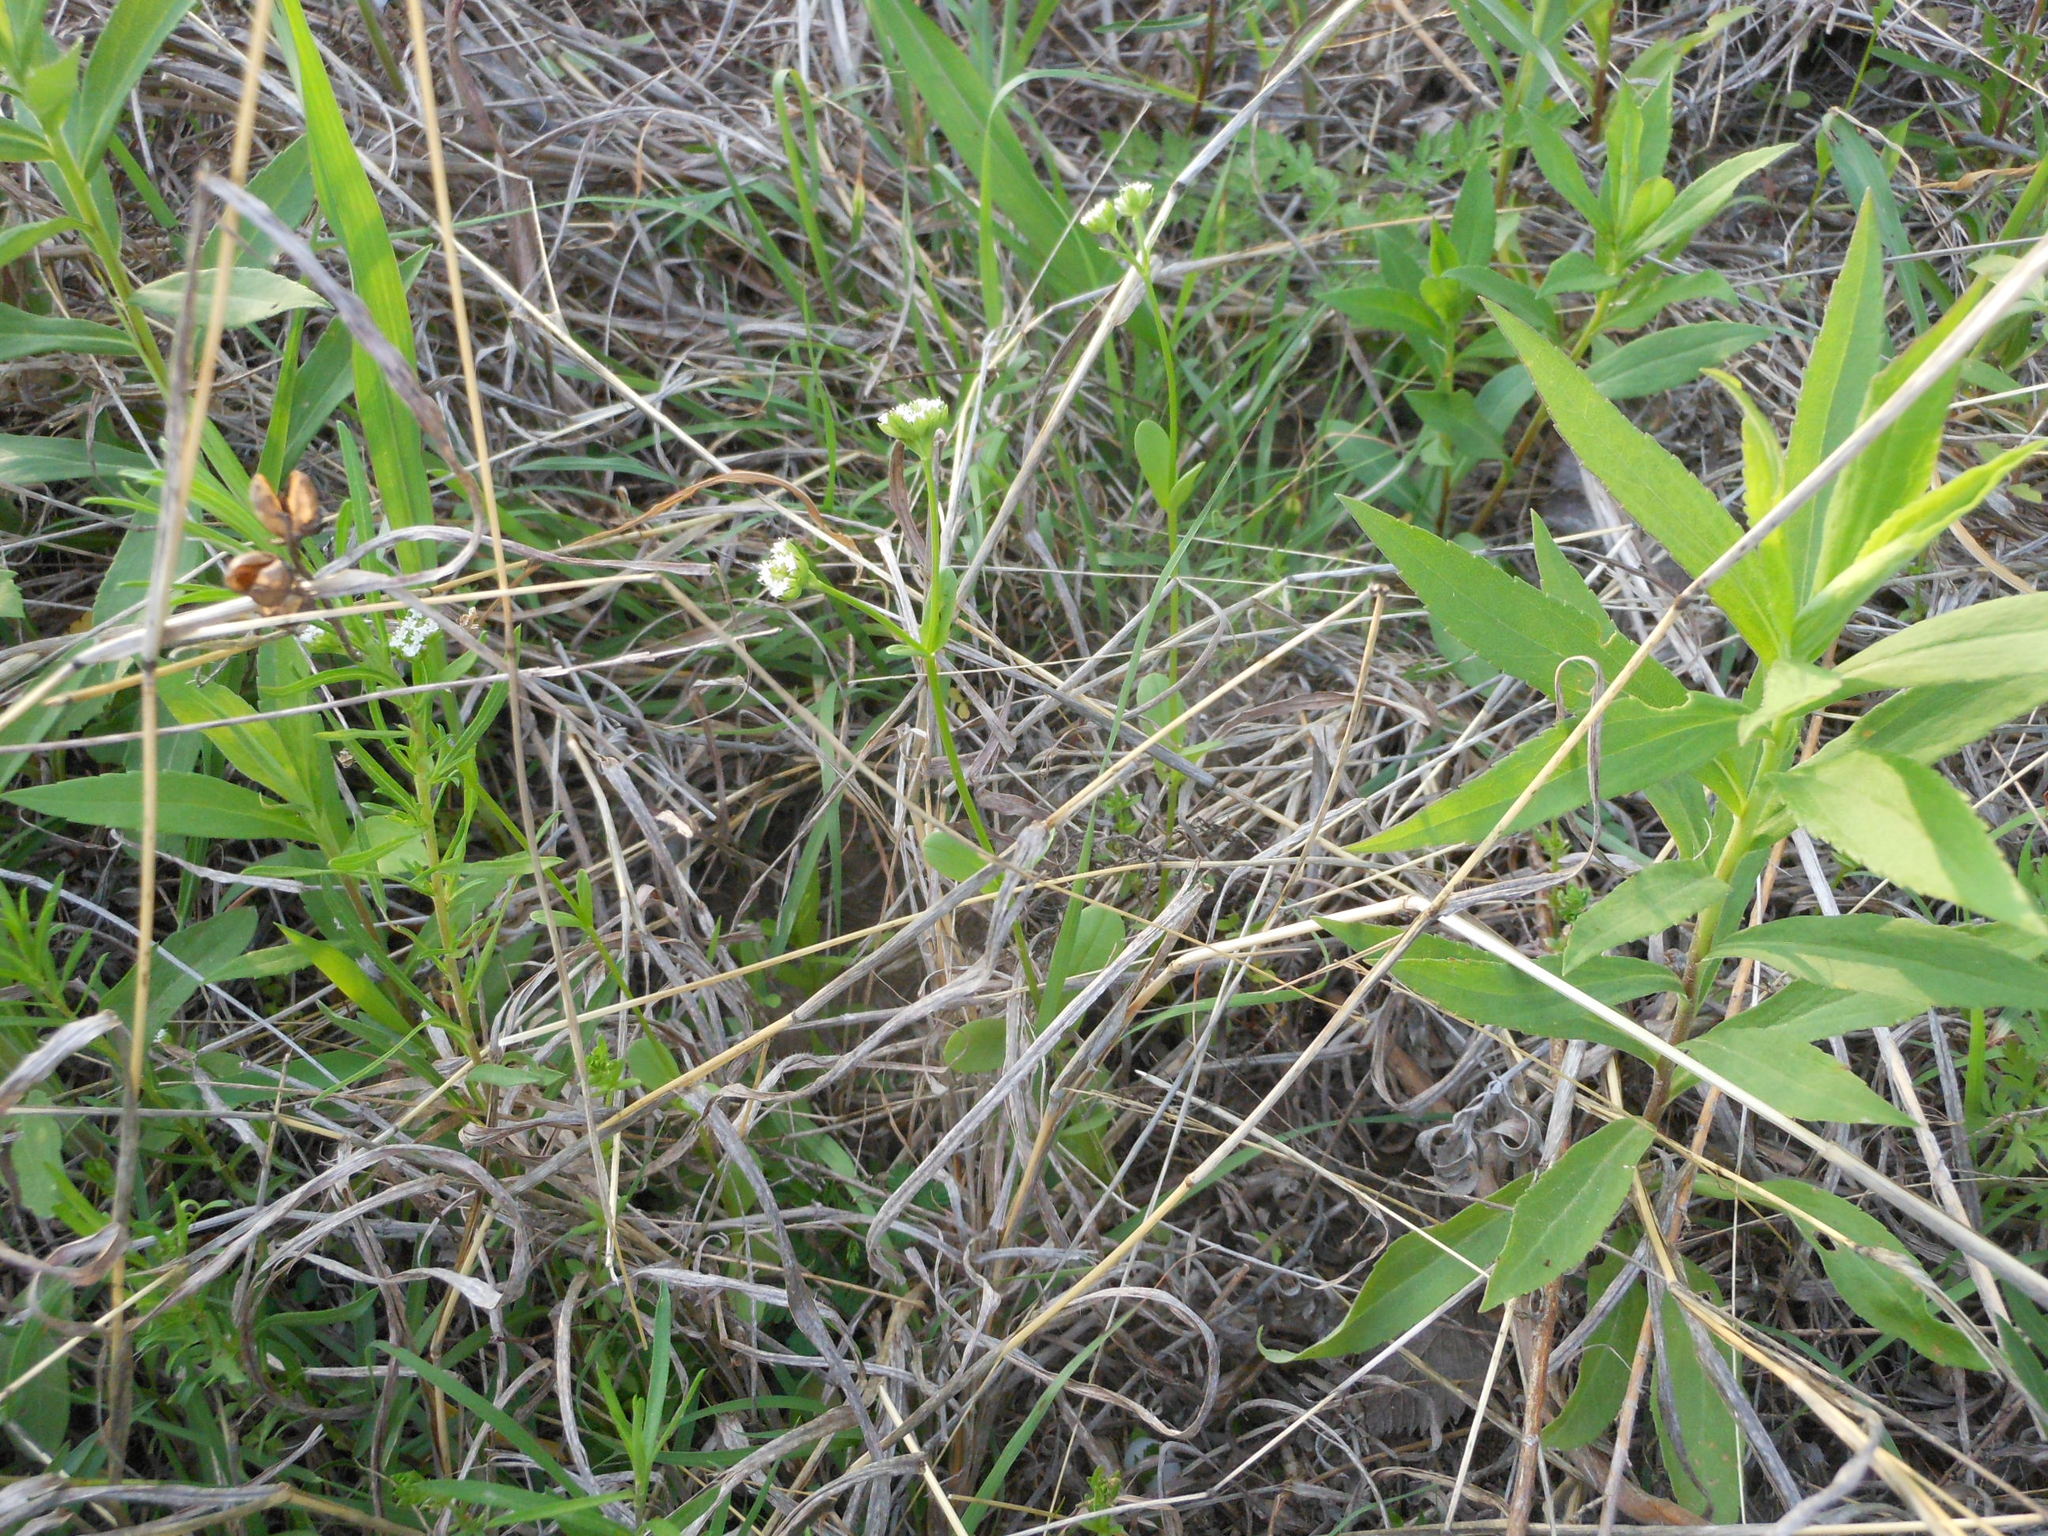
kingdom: Plantae
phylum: Tracheophyta
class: Magnoliopsida
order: Dipsacales
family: Caprifoliaceae
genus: Valerianella
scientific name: Valerianella radiata
